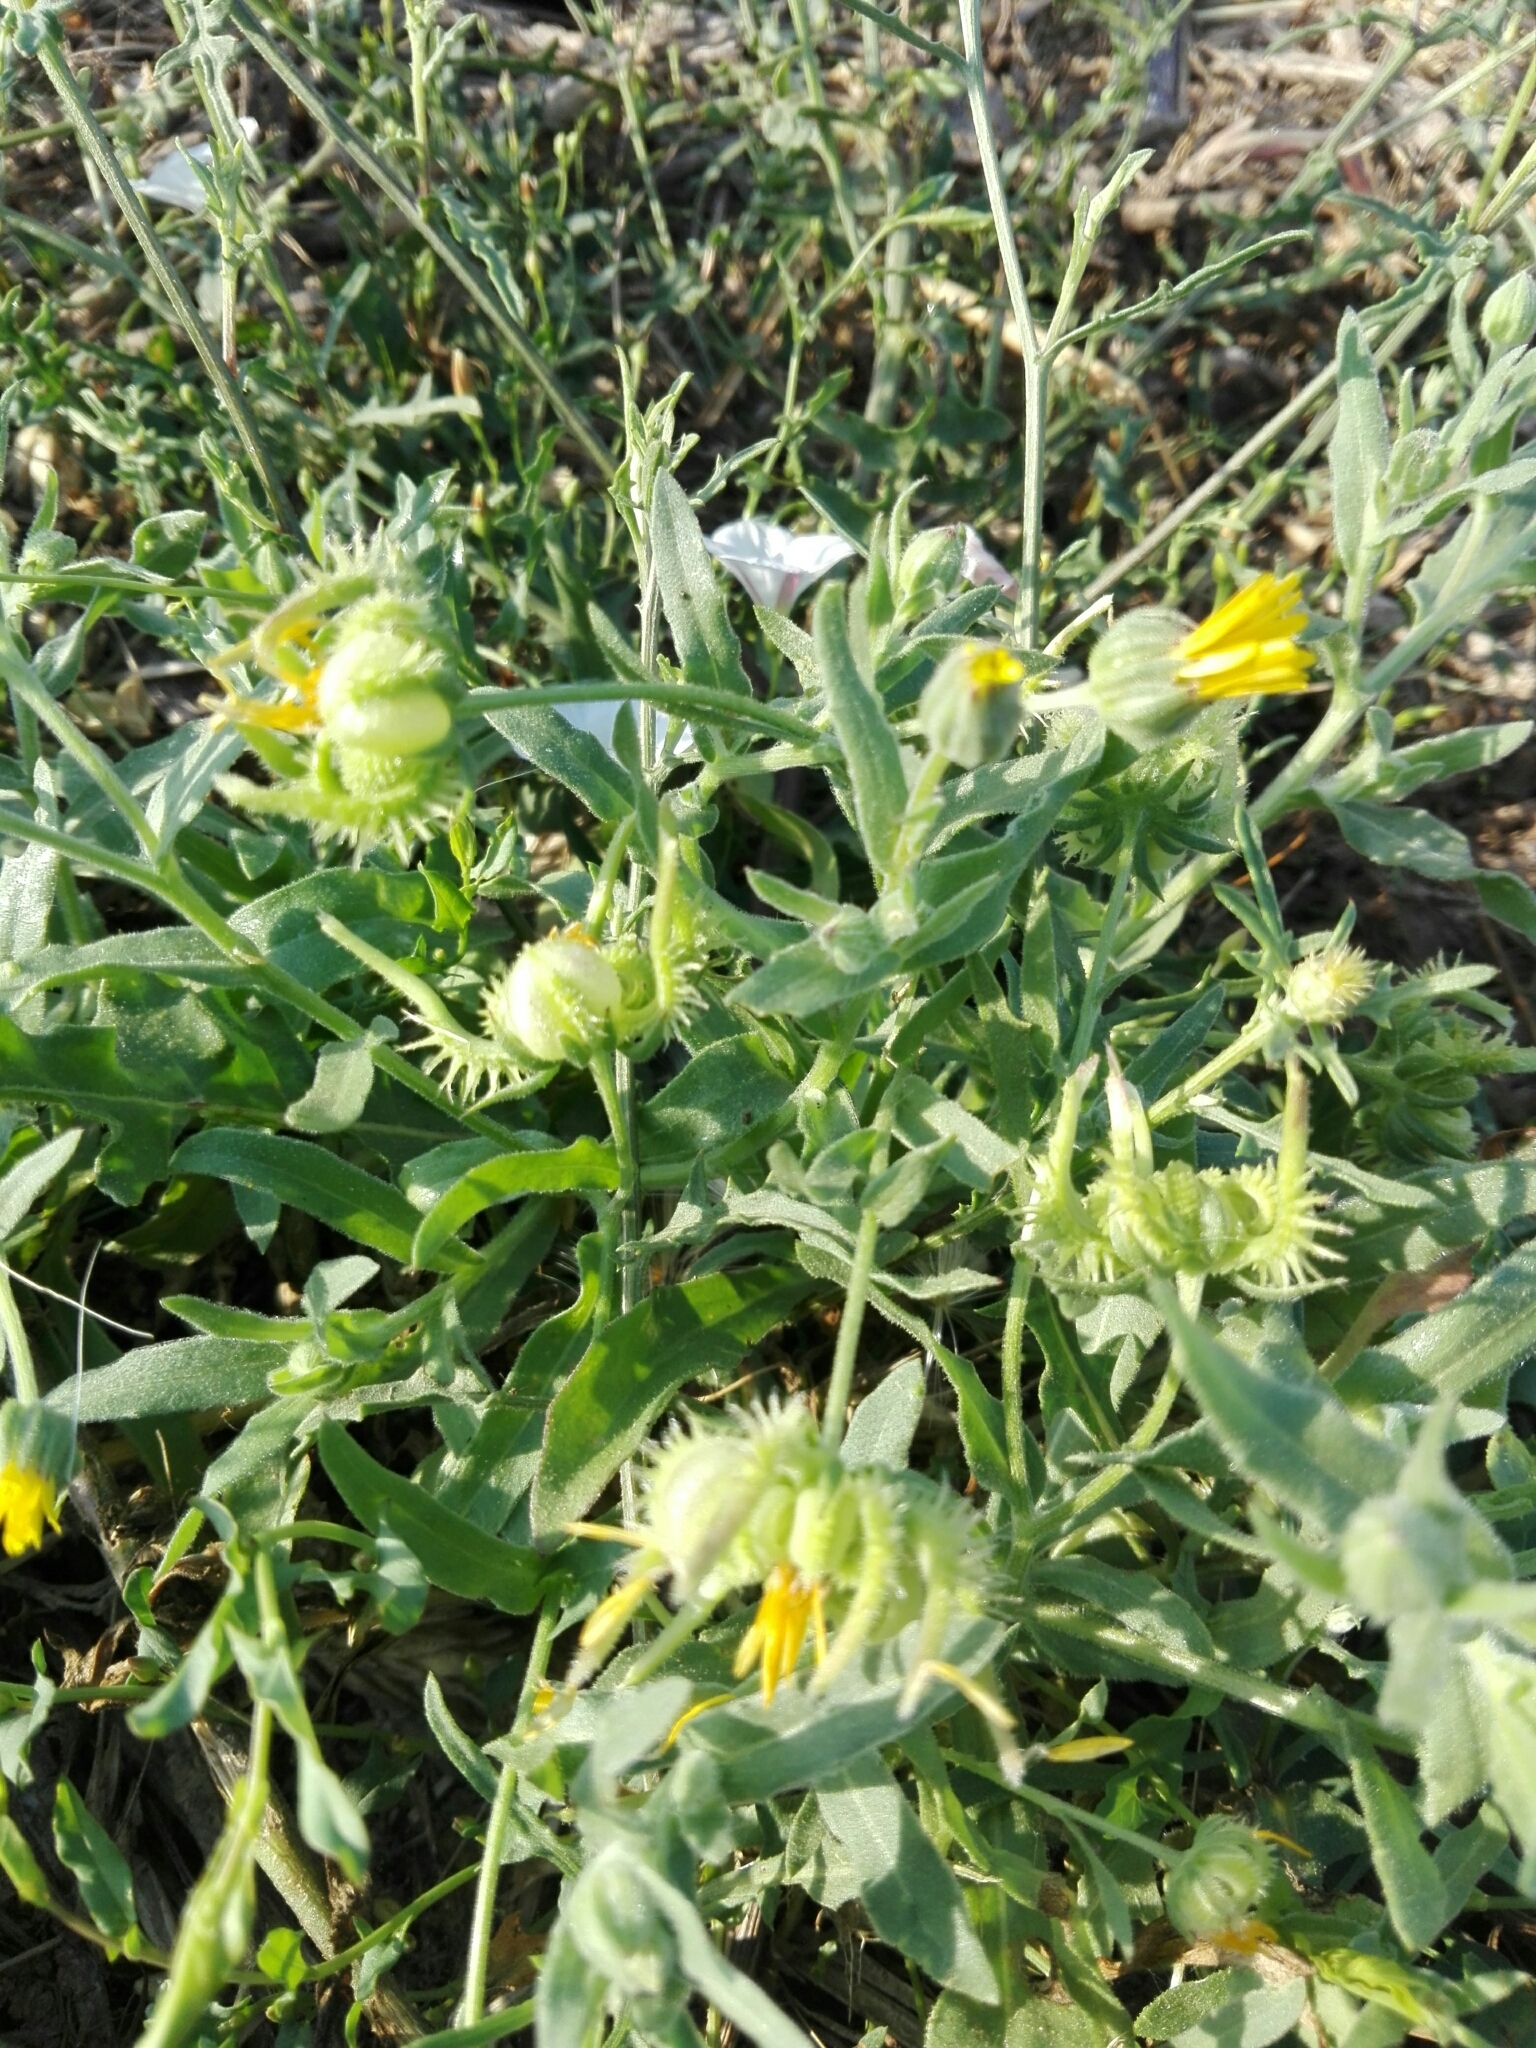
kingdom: Plantae
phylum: Tracheophyta
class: Magnoliopsida
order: Asterales
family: Asteraceae
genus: Calendula
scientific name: Calendula arvensis
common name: Field marigold
